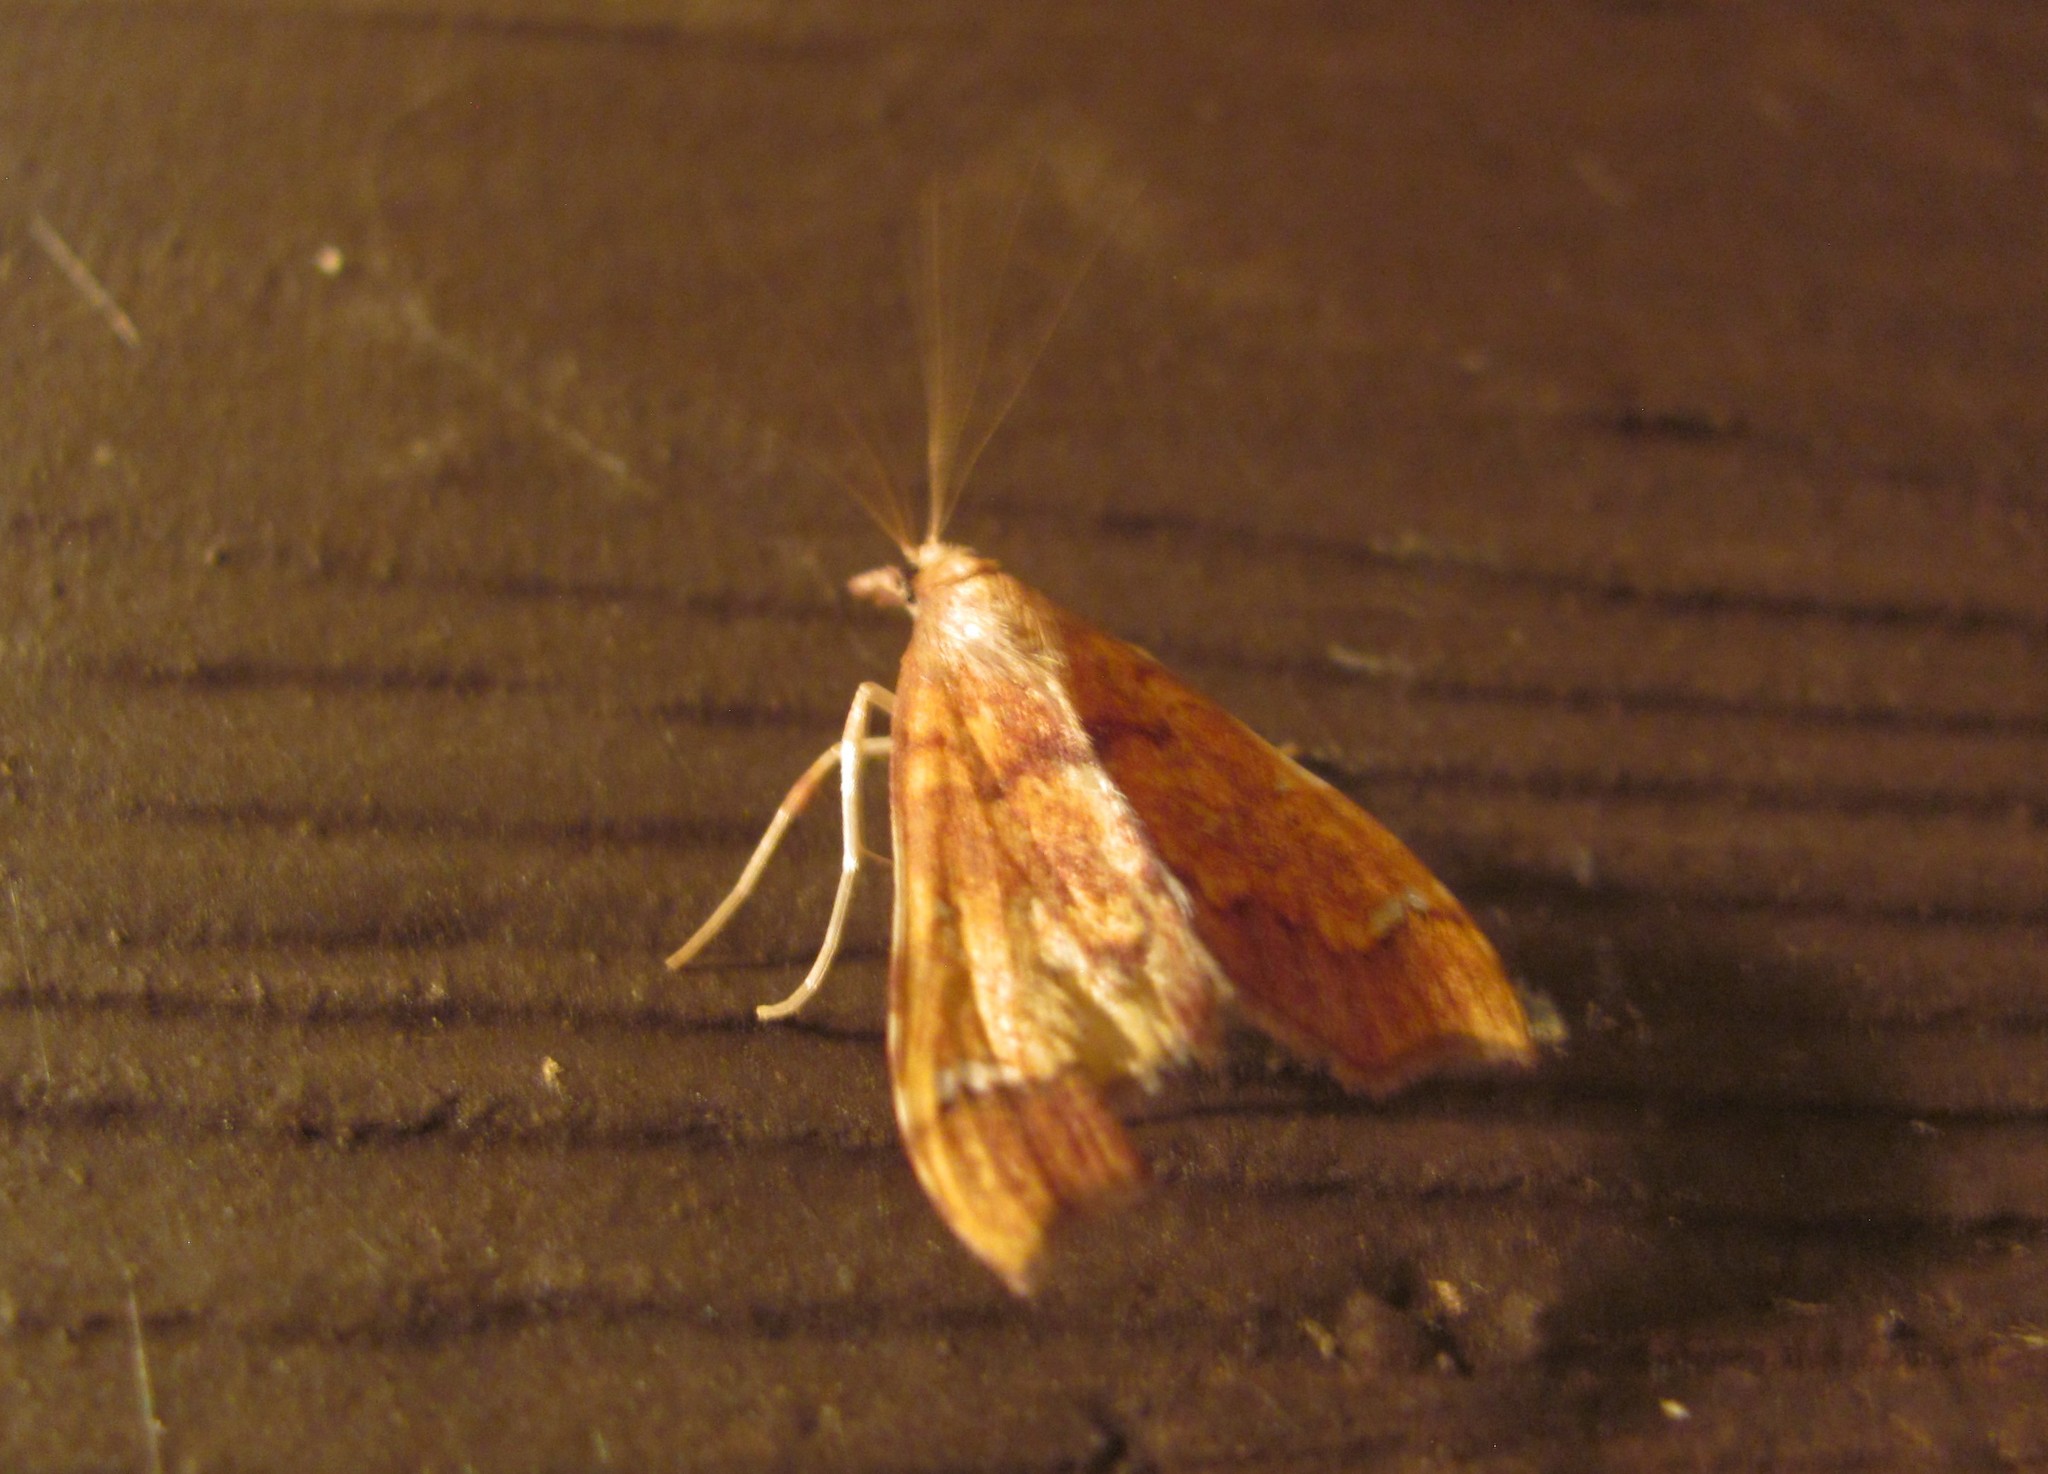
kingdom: Animalia
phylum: Arthropoda
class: Insecta
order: Lepidoptera
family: Crambidae
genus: Deana
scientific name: Deana hybreasalis
